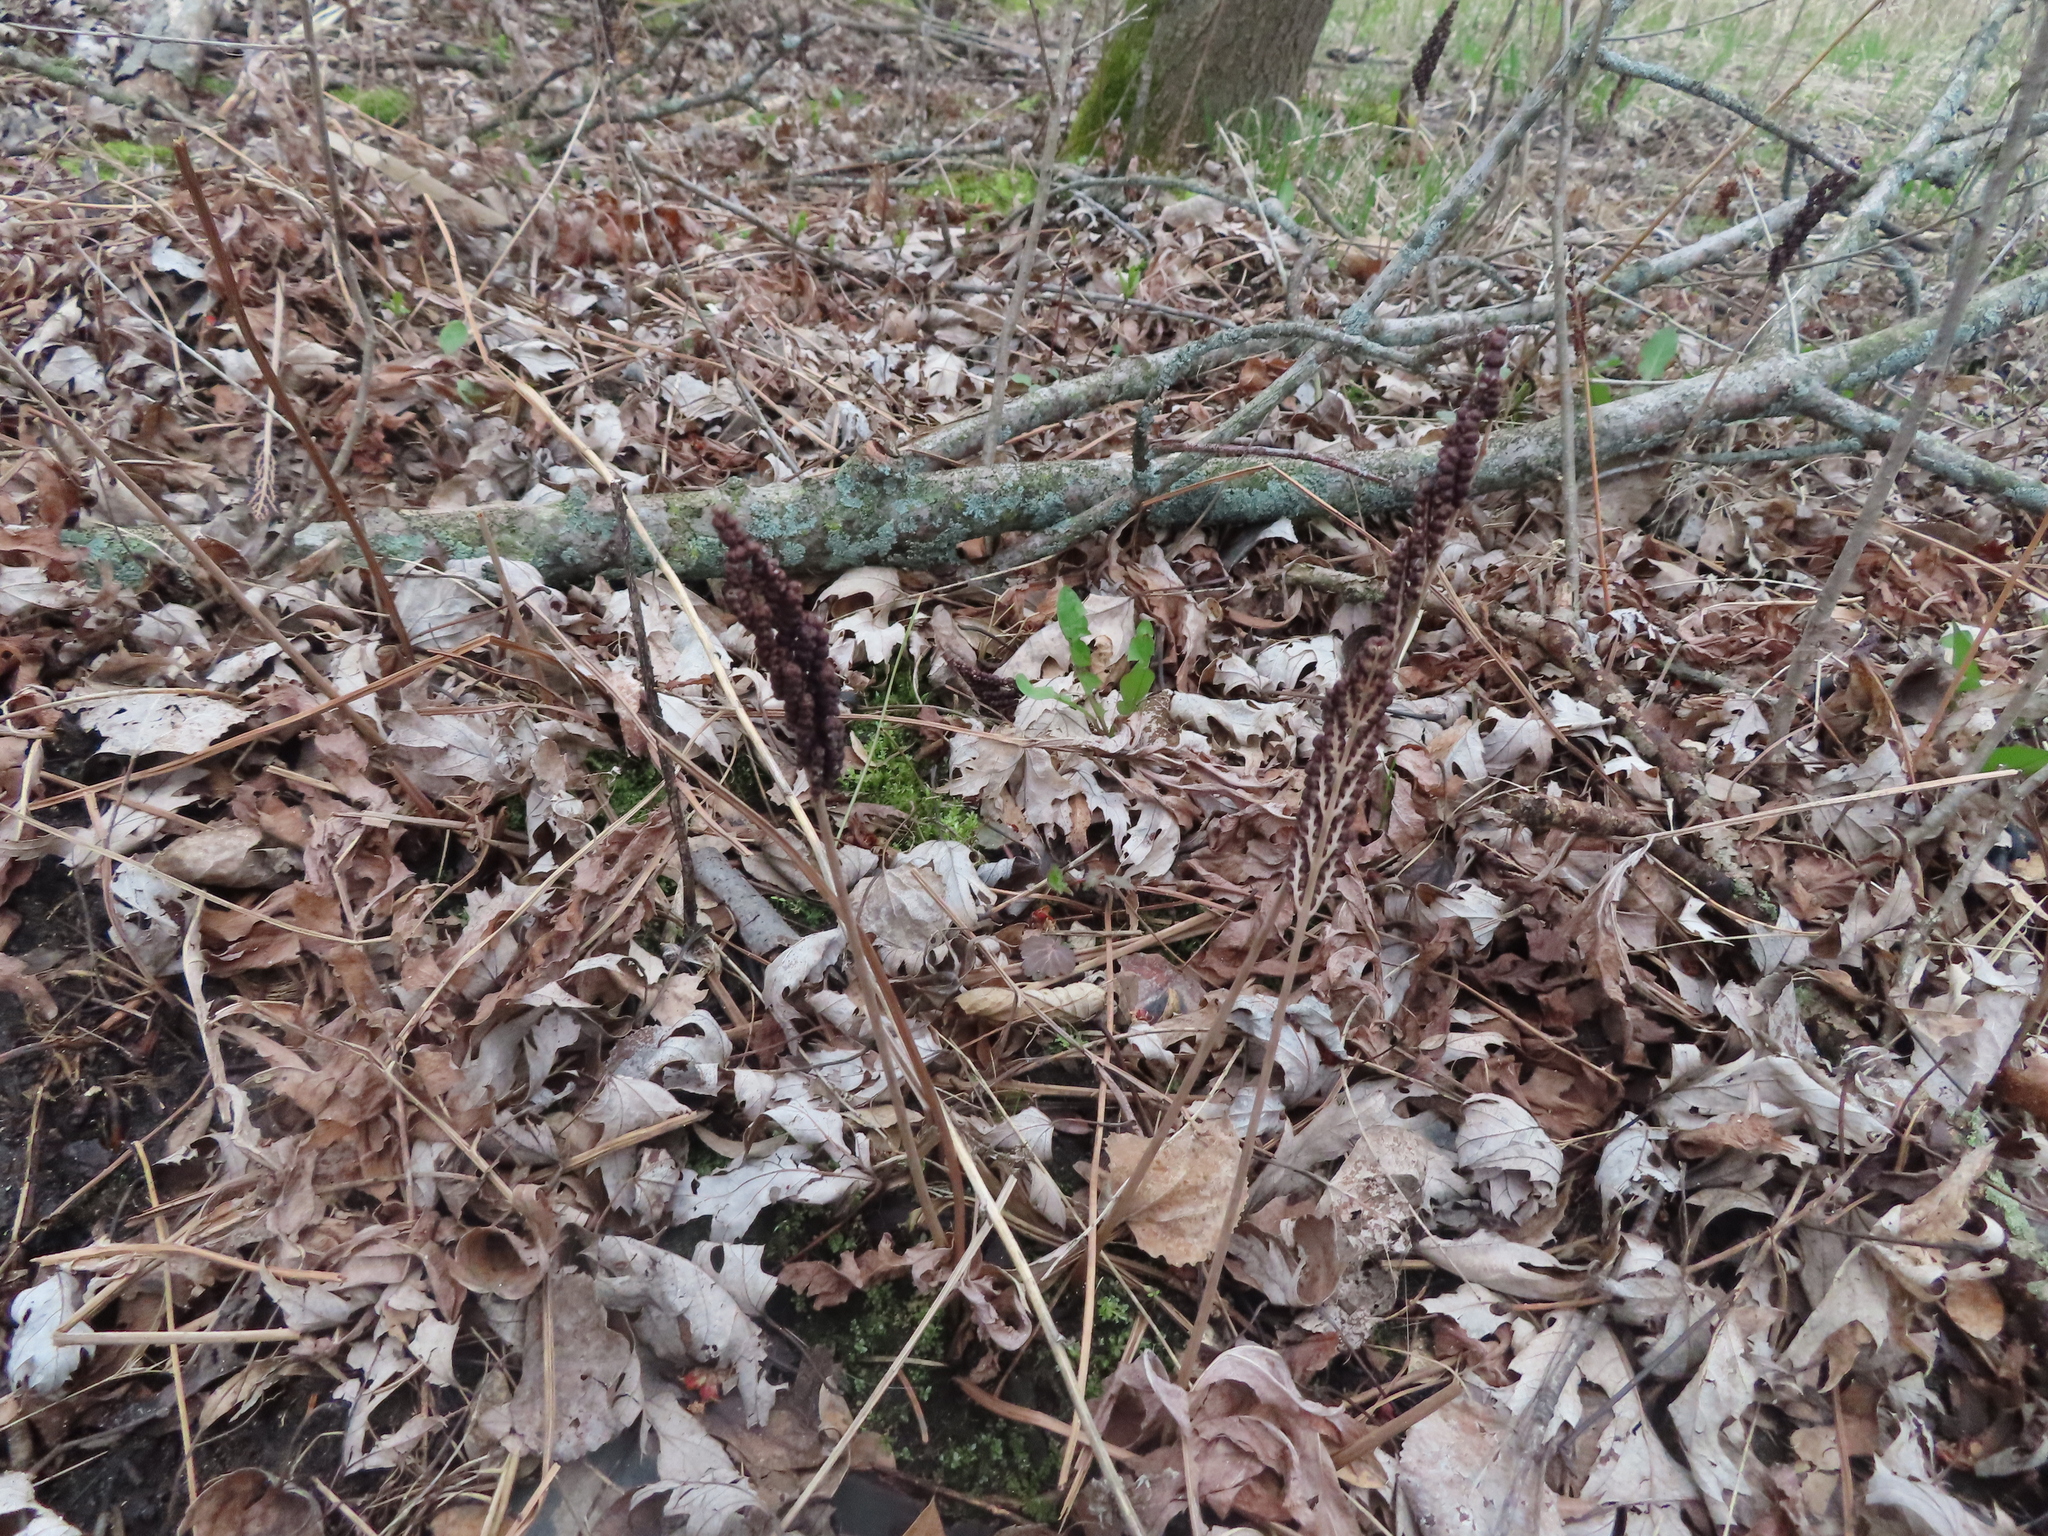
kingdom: Plantae
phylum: Tracheophyta
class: Polypodiopsida
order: Polypodiales
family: Onocleaceae
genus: Onoclea
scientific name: Onoclea sensibilis
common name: Sensitive fern
